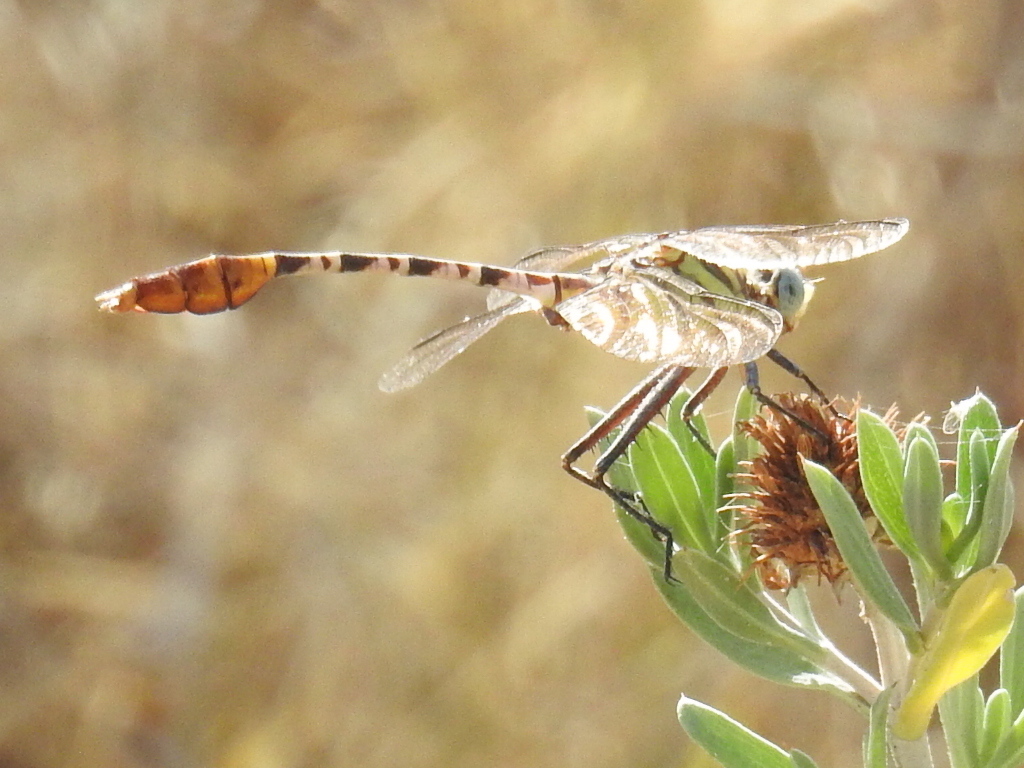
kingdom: Animalia
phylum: Arthropoda
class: Insecta
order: Odonata
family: Gomphidae
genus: Dromogomphus
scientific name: Dromogomphus spoliatus
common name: Flag-tailed spinyleg
